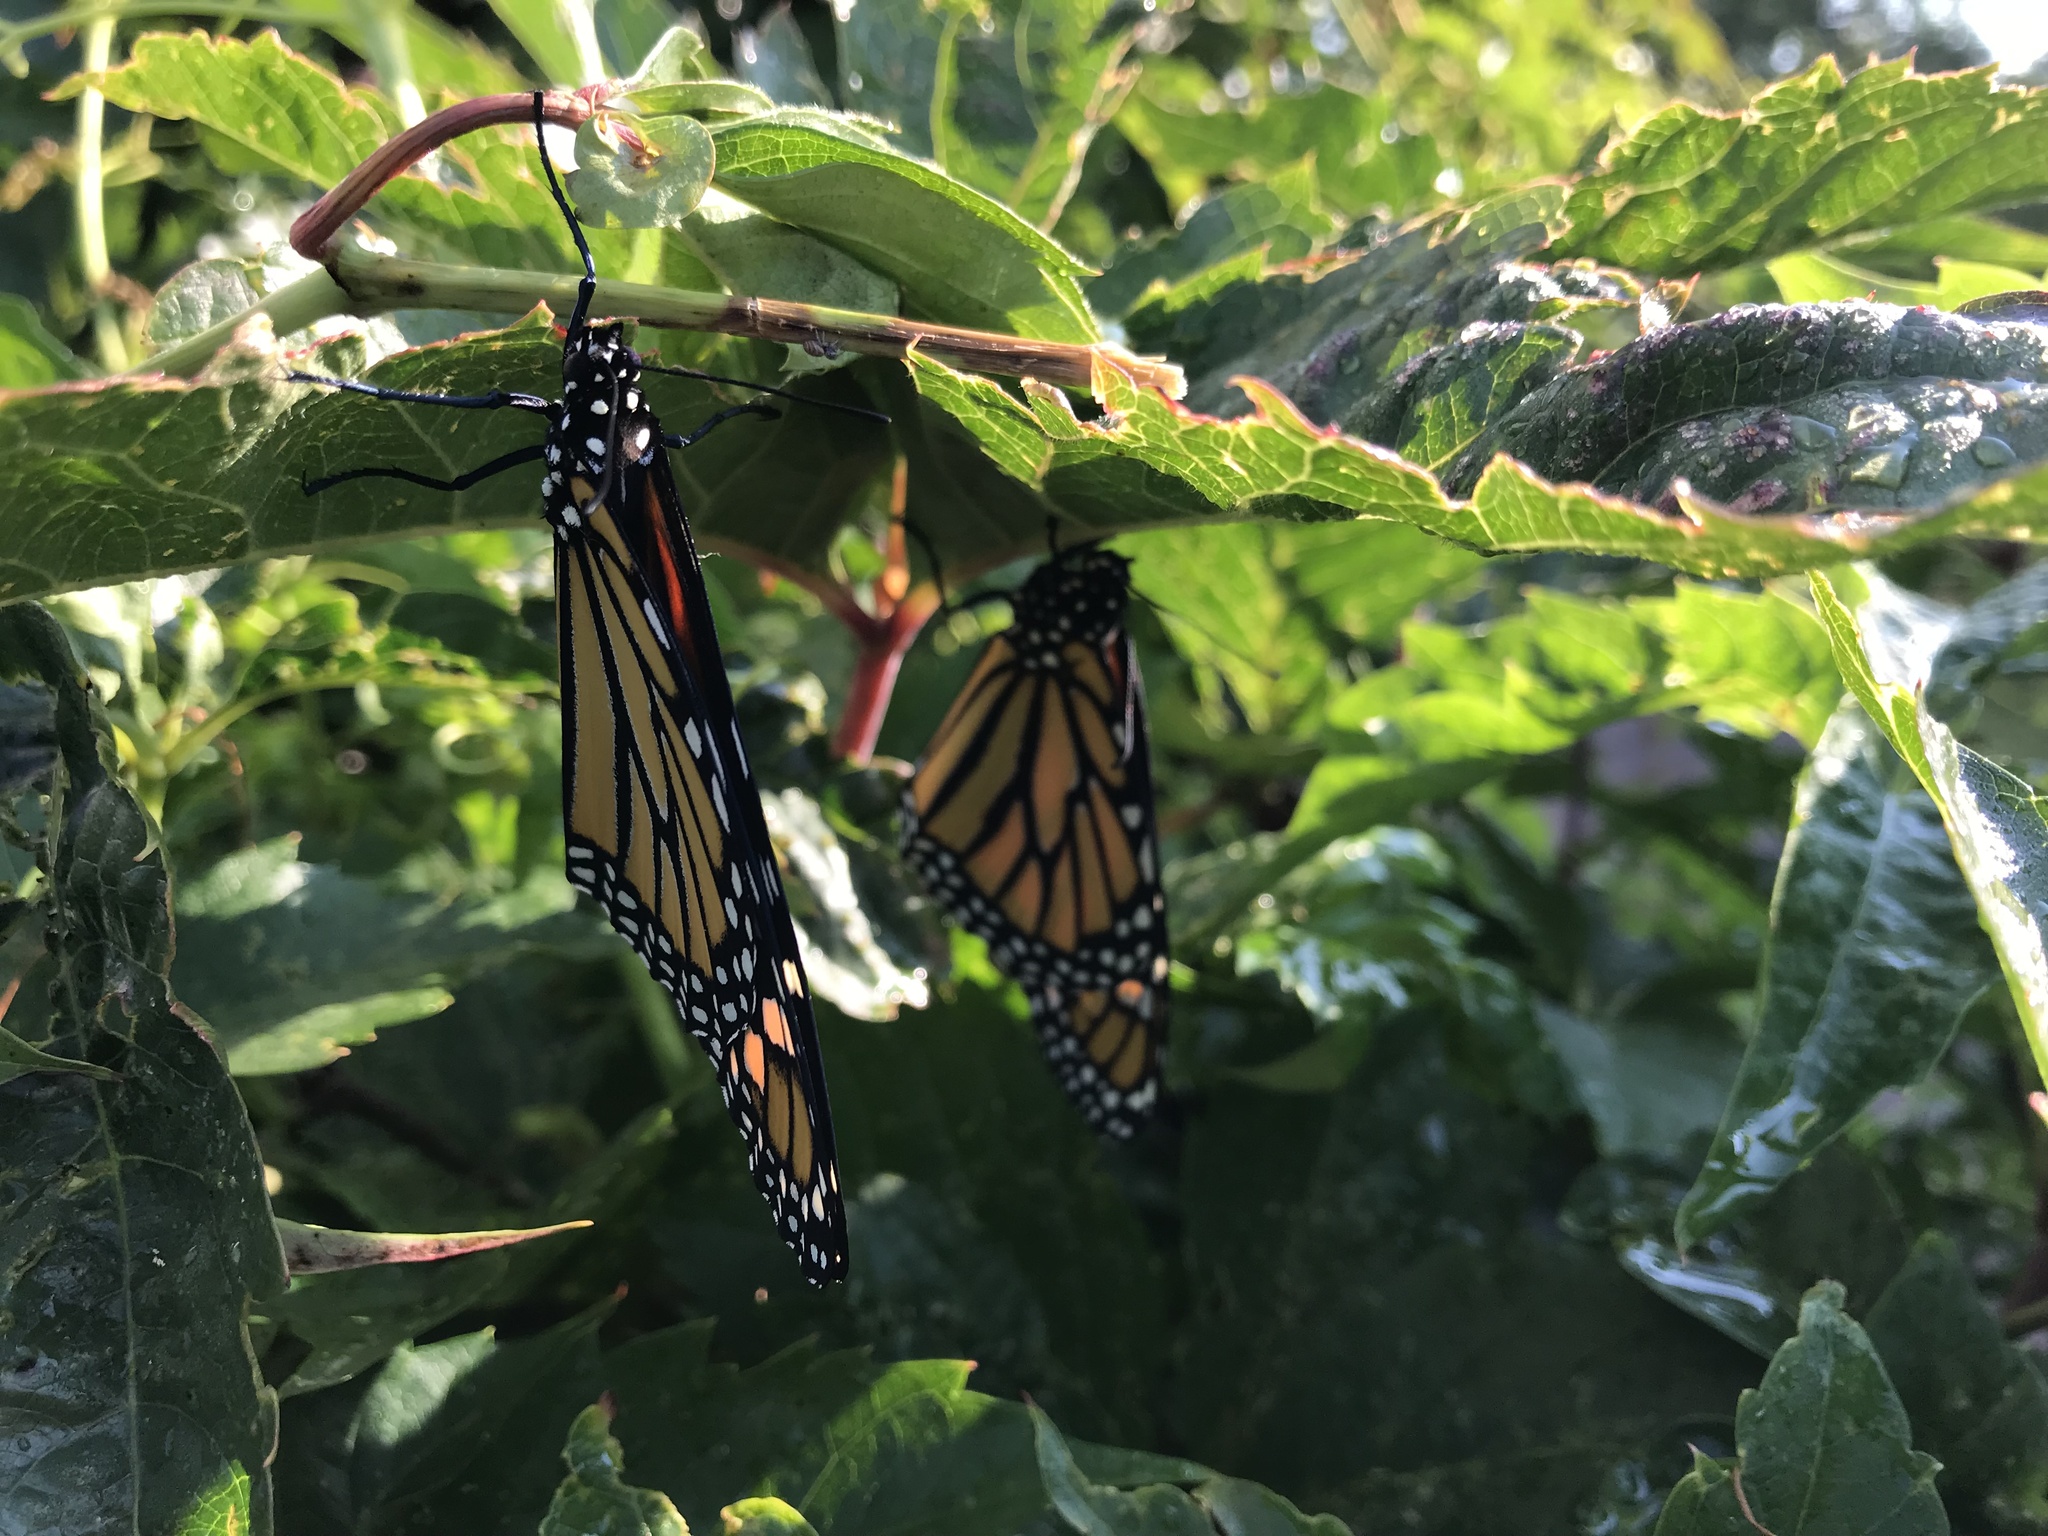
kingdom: Animalia
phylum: Arthropoda
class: Insecta
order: Lepidoptera
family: Nymphalidae
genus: Danaus
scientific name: Danaus plexippus
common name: Monarch
